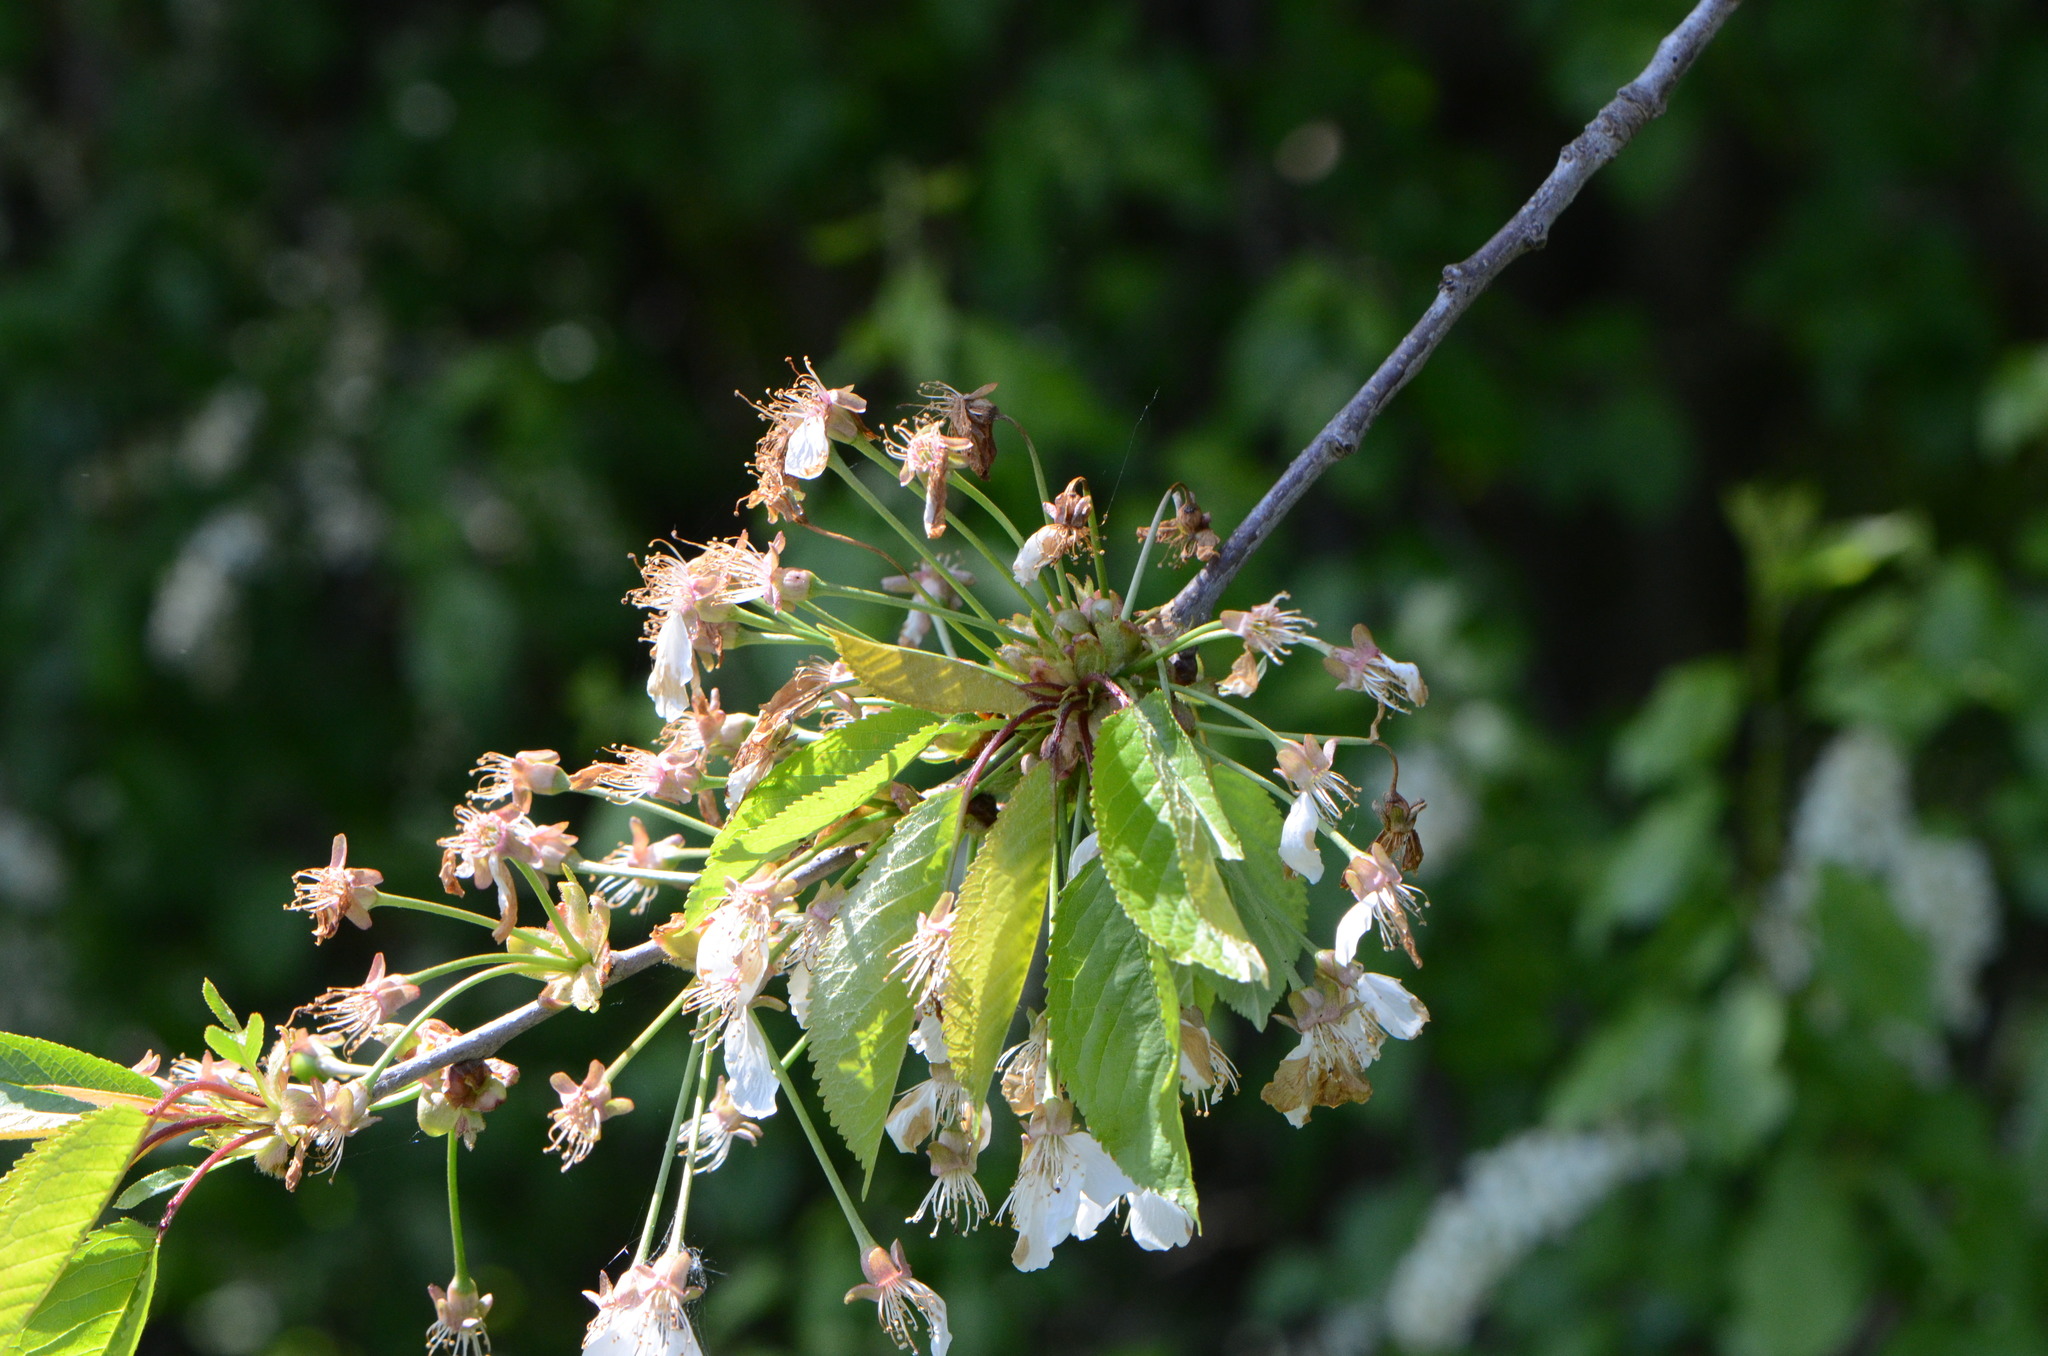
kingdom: Plantae
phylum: Tracheophyta
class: Magnoliopsida
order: Rosales
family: Rosaceae
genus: Prunus
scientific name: Prunus avium
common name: Sweet cherry
